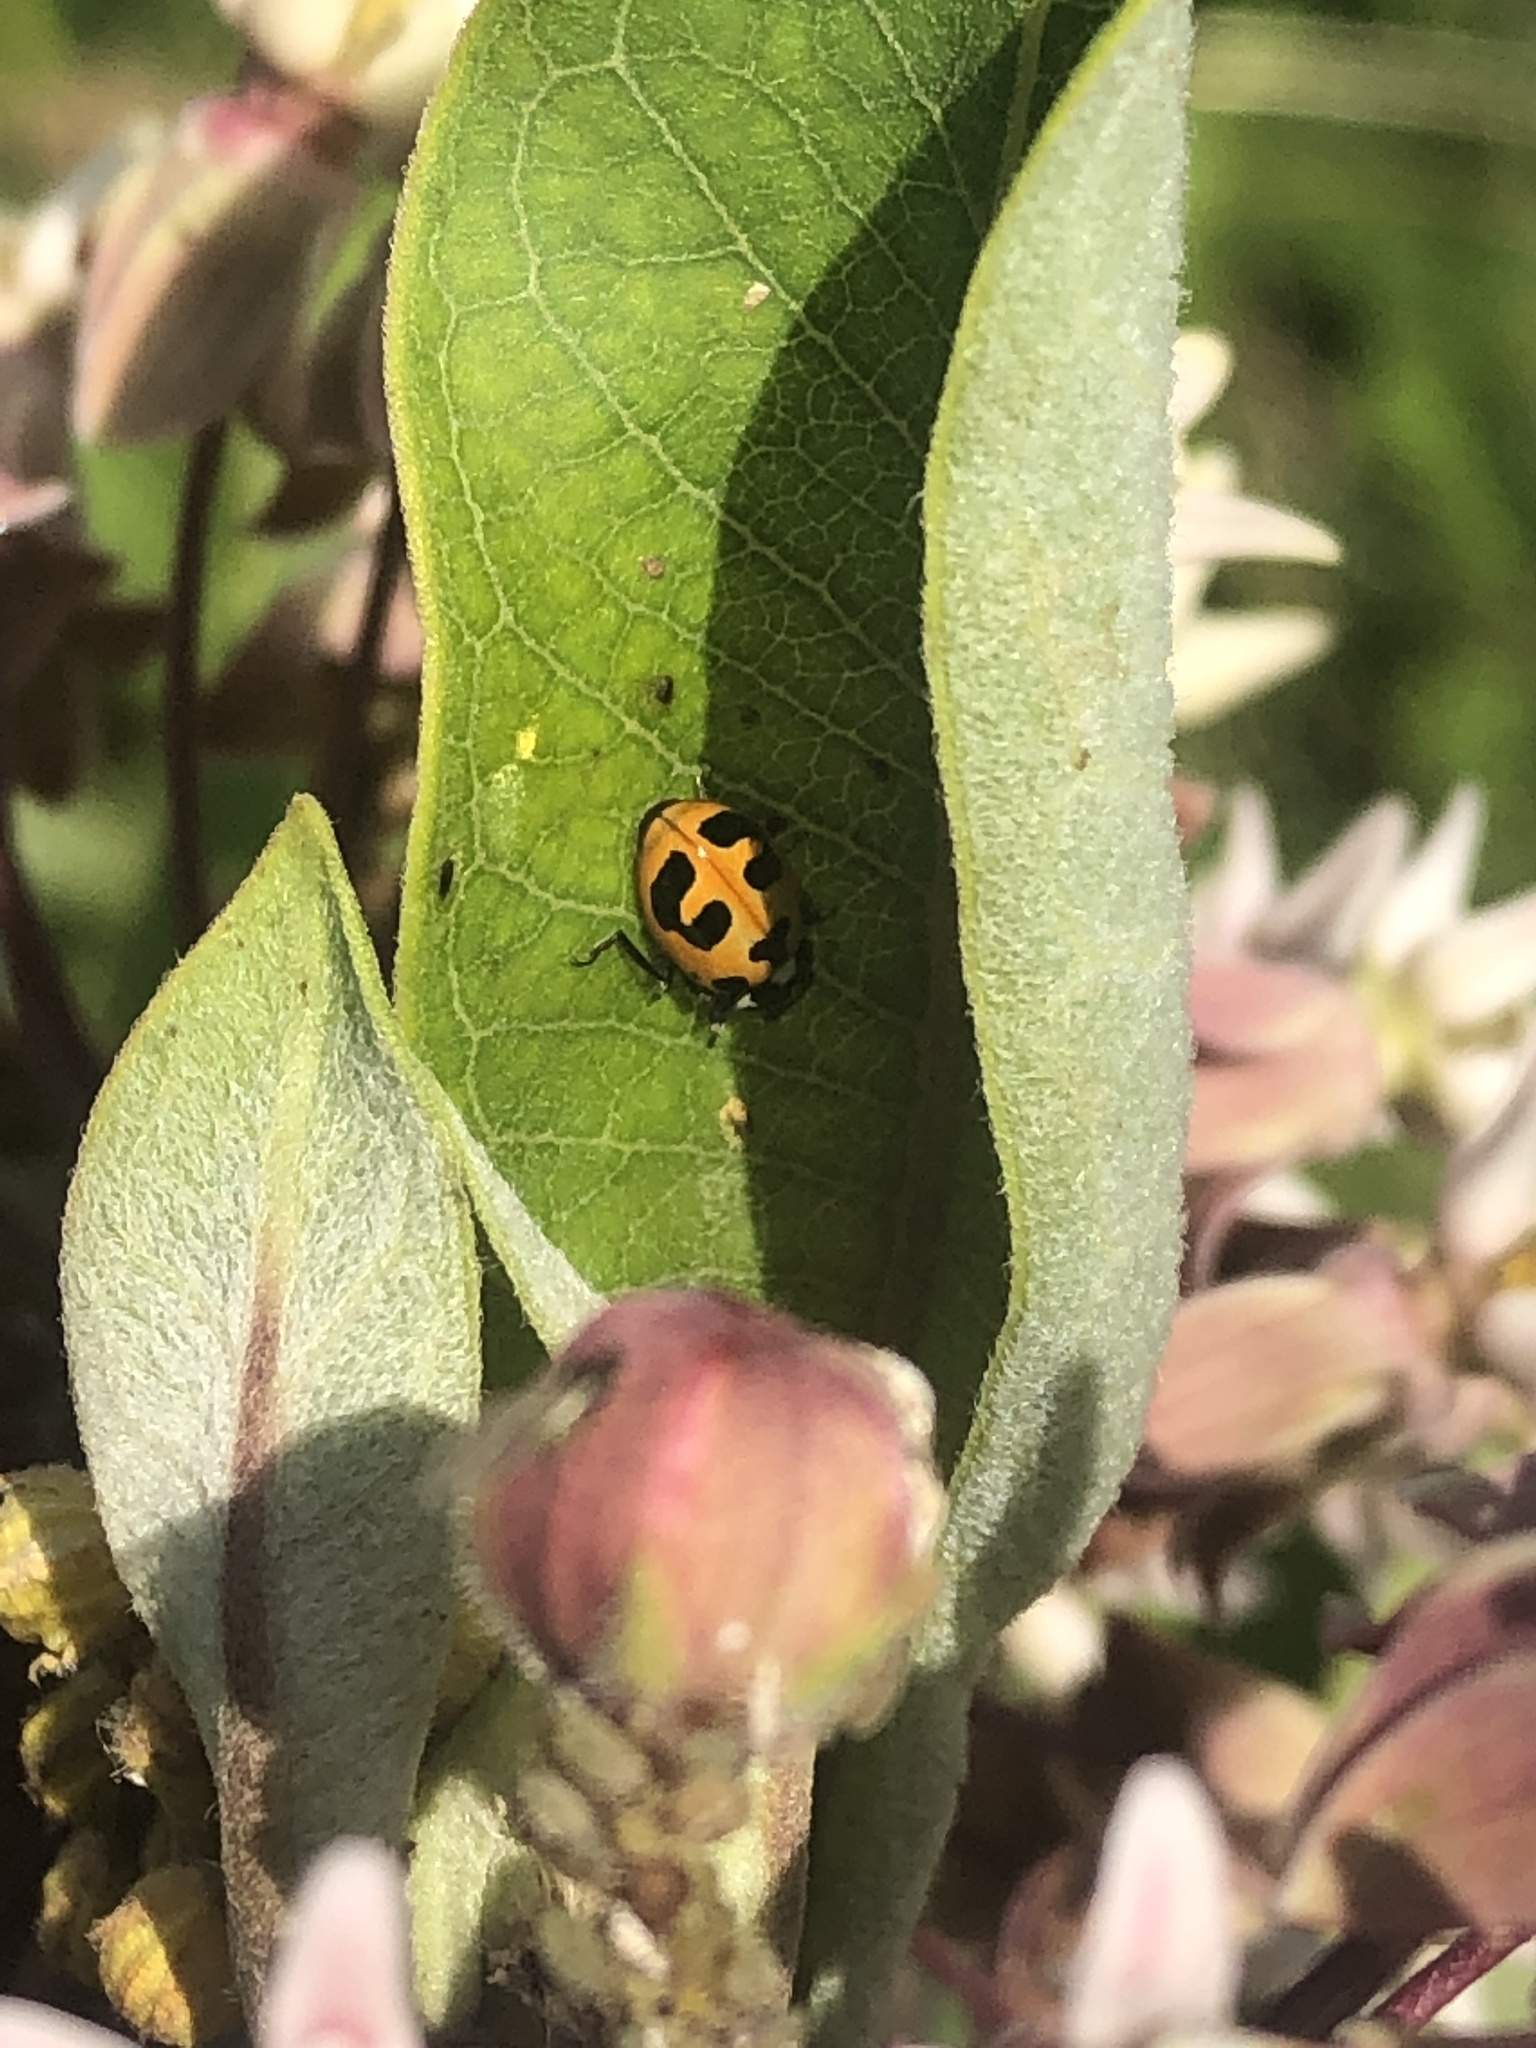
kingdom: Animalia
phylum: Arthropoda
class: Insecta
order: Coleoptera
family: Coccinellidae
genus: Hippodamia
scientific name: Hippodamia parenthesis
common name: Parenthesis lady beetle
